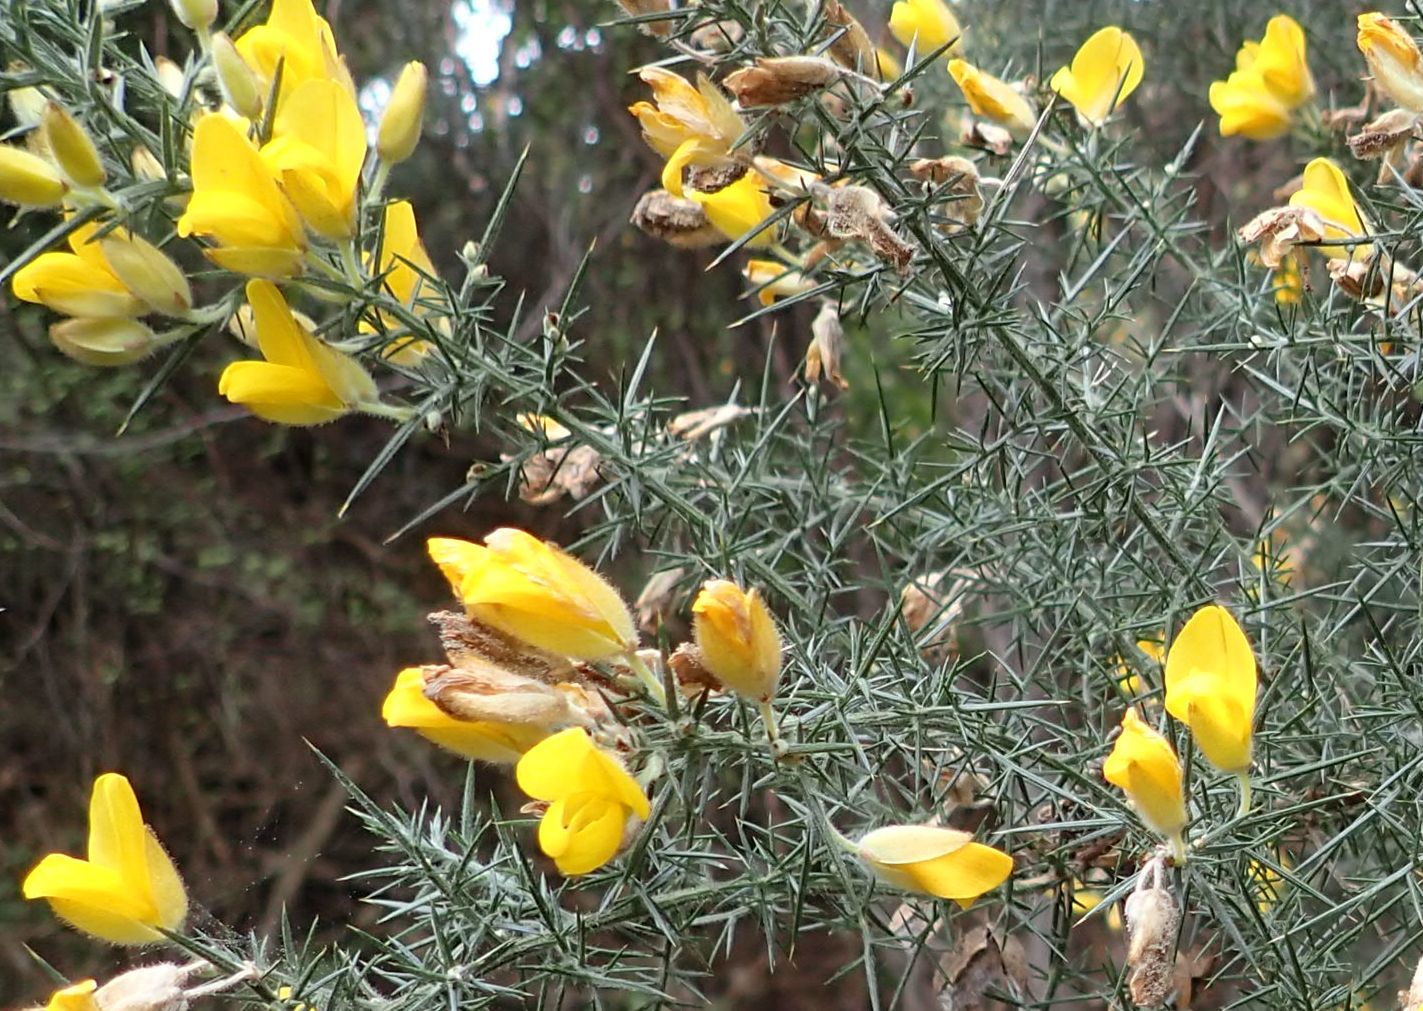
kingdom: Plantae
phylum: Tracheophyta
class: Magnoliopsida
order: Fabales
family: Fabaceae
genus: Ulex
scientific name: Ulex europaeus
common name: Common gorse
